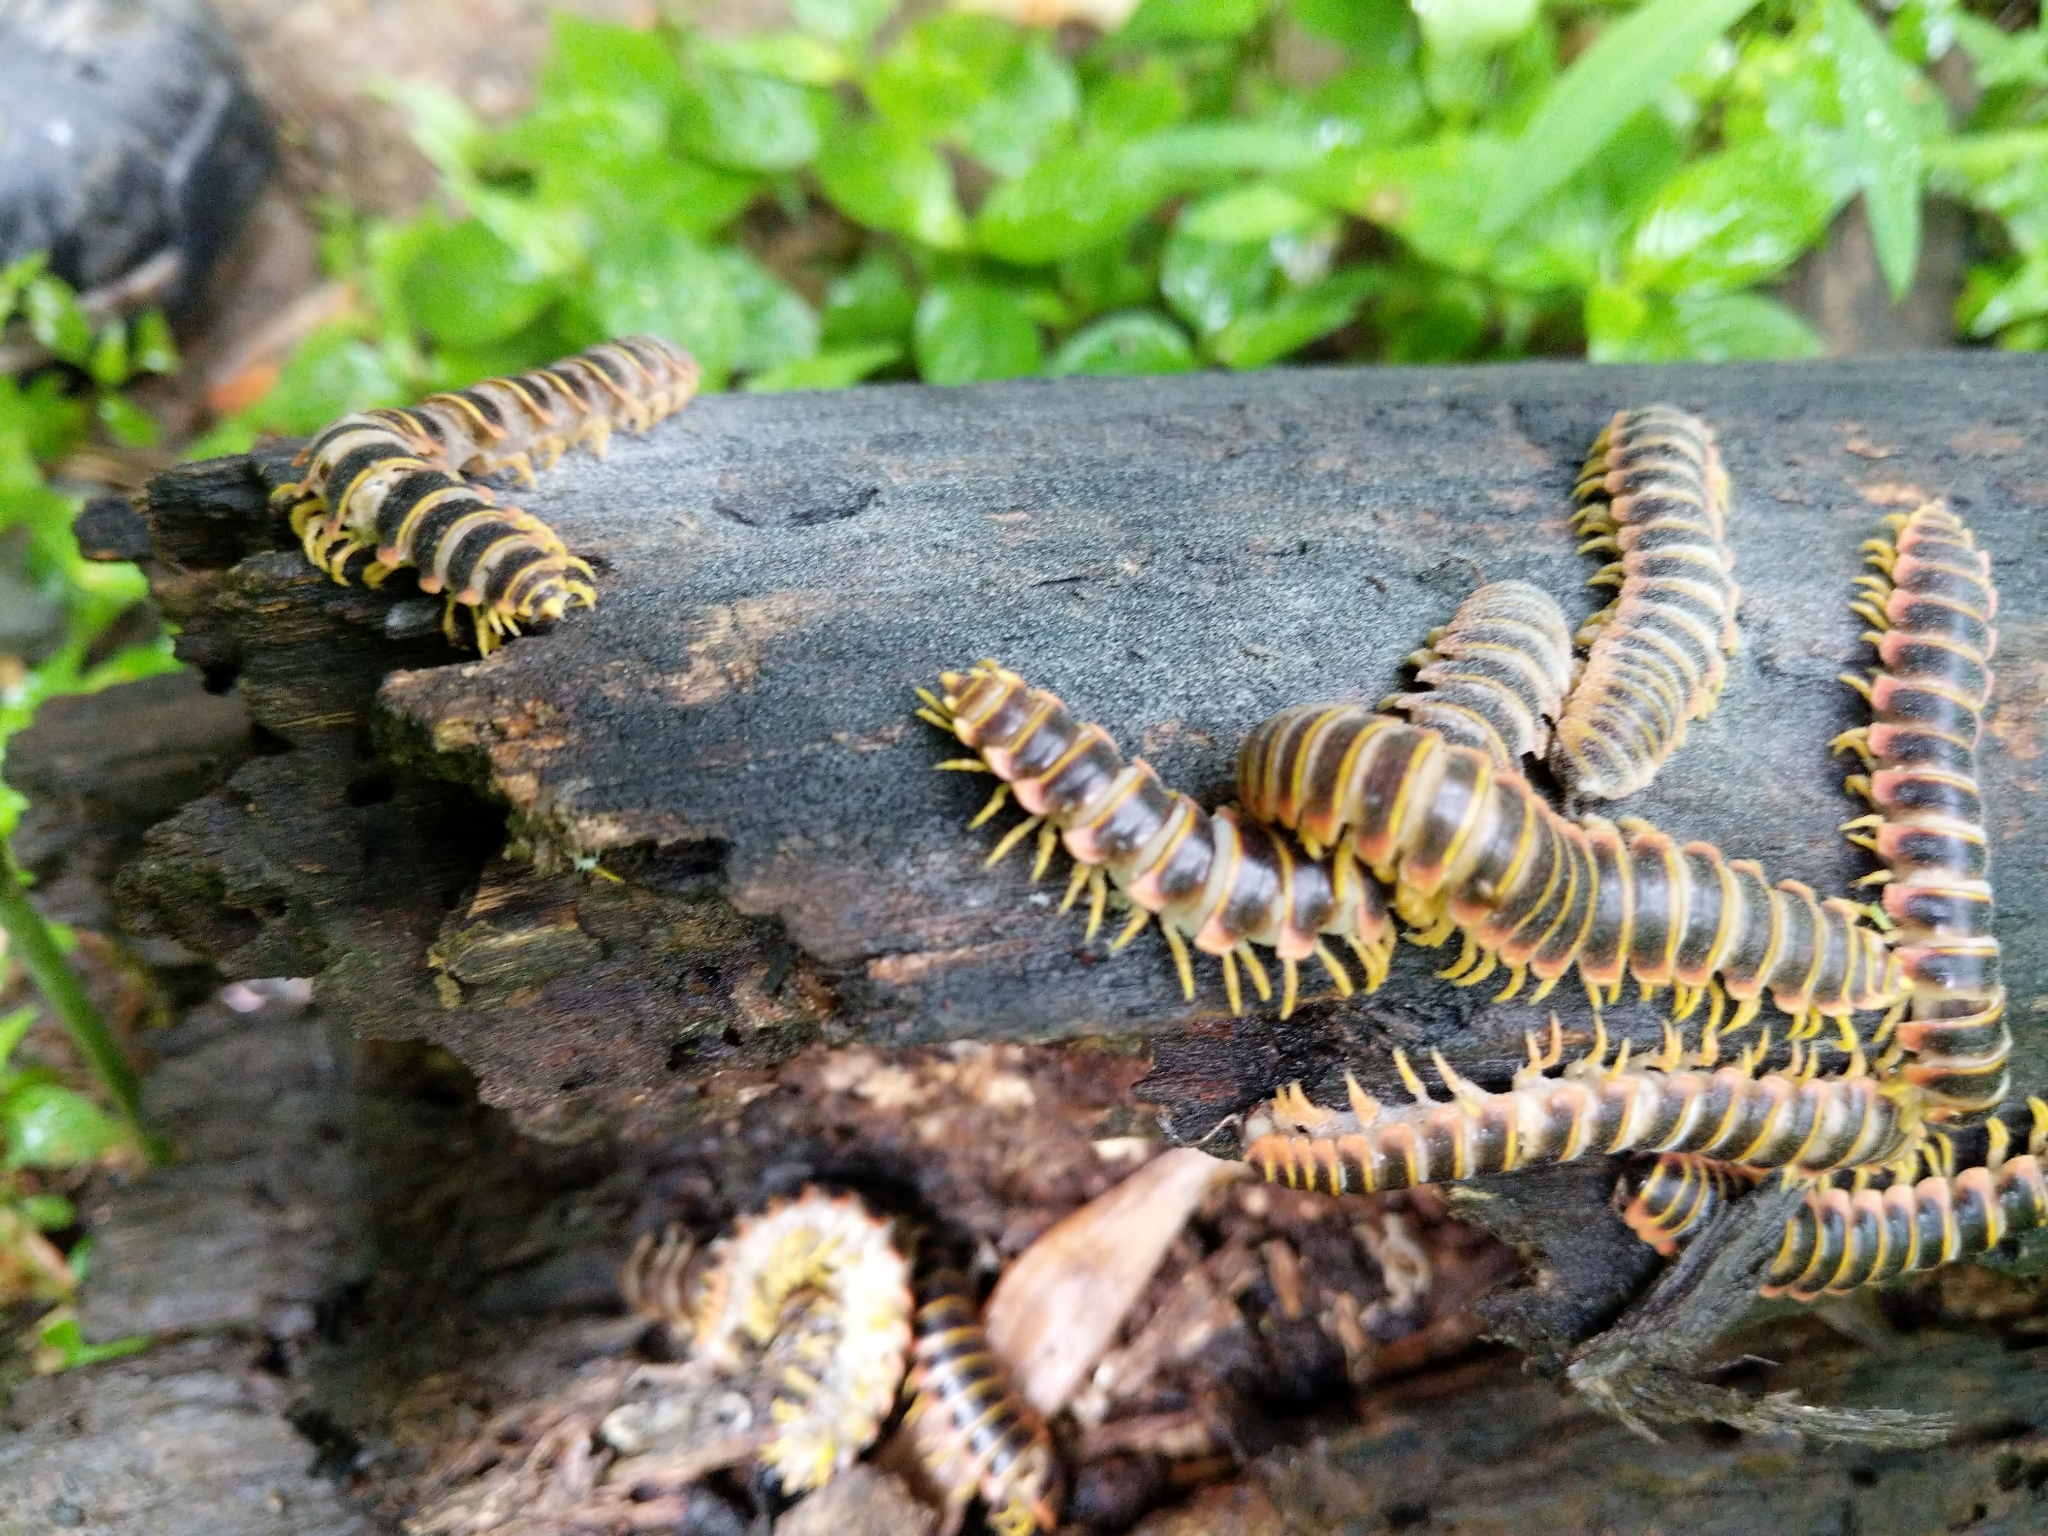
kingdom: Animalia
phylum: Arthropoda
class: Diplopoda
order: Polydesmida
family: Xystodesmidae
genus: Apheloria
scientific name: Apheloria virginiensis
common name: Black-and-gold flat millipede
